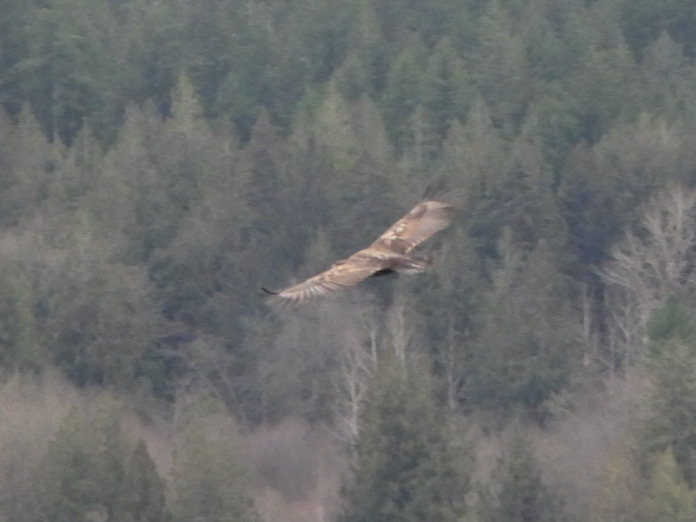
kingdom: Animalia
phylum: Chordata
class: Aves
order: Accipitriformes
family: Accipitridae
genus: Haliaeetus
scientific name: Haliaeetus leucocephalus
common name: Bald eagle
